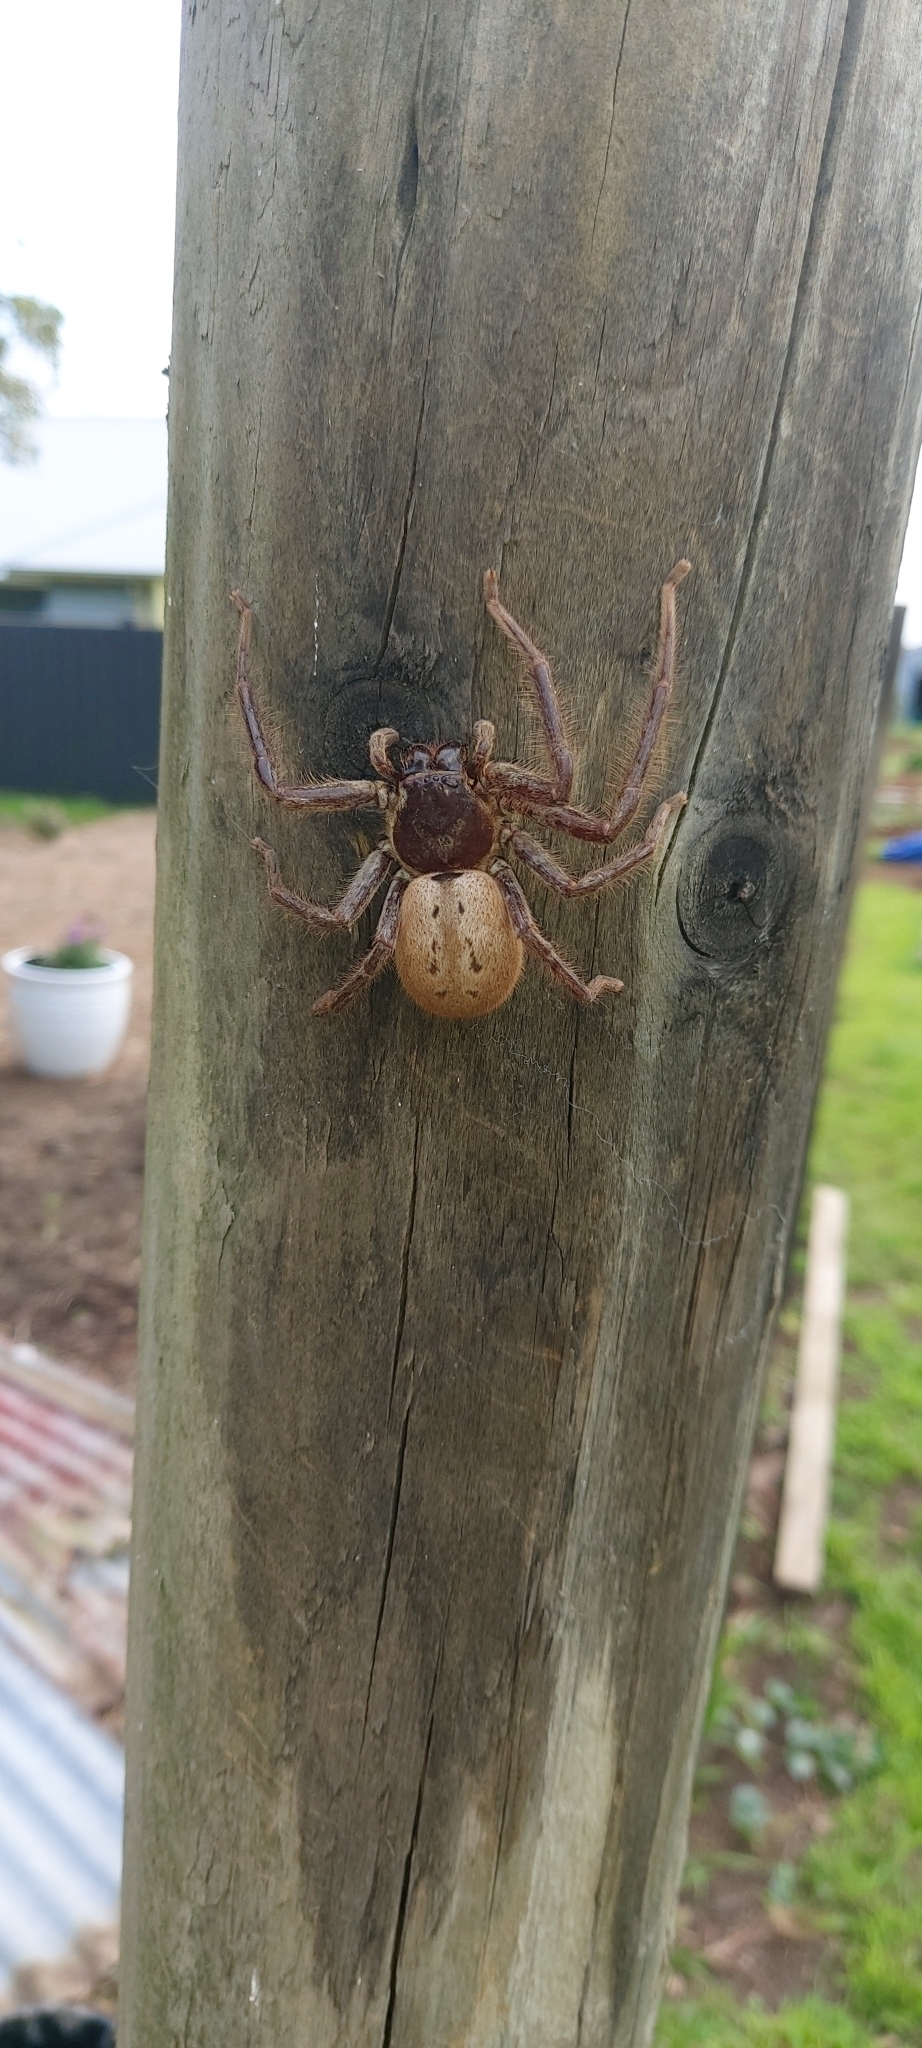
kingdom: Animalia
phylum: Arthropoda
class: Arachnida
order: Araneae
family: Sparassidae
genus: Isopeda
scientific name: Isopeda montana
